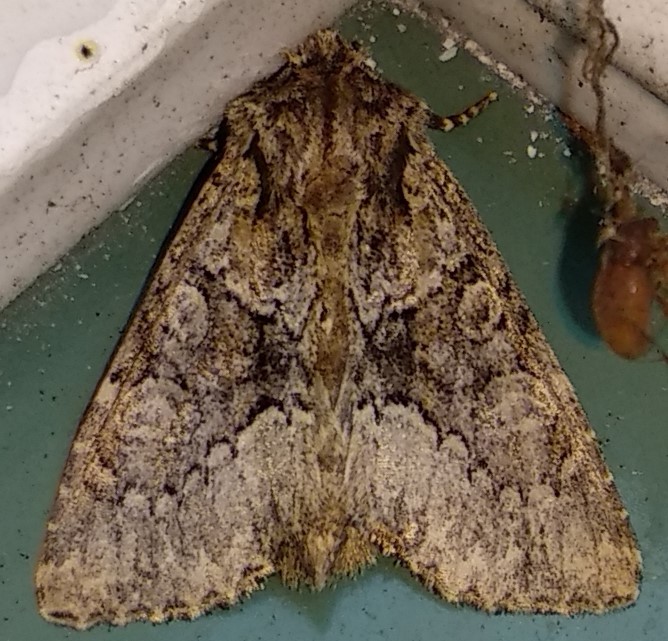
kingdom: Animalia
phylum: Arthropoda
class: Insecta
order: Lepidoptera
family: Noctuidae
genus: Platypolia
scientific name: Platypolia mactata
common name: Adorable brocade moth
